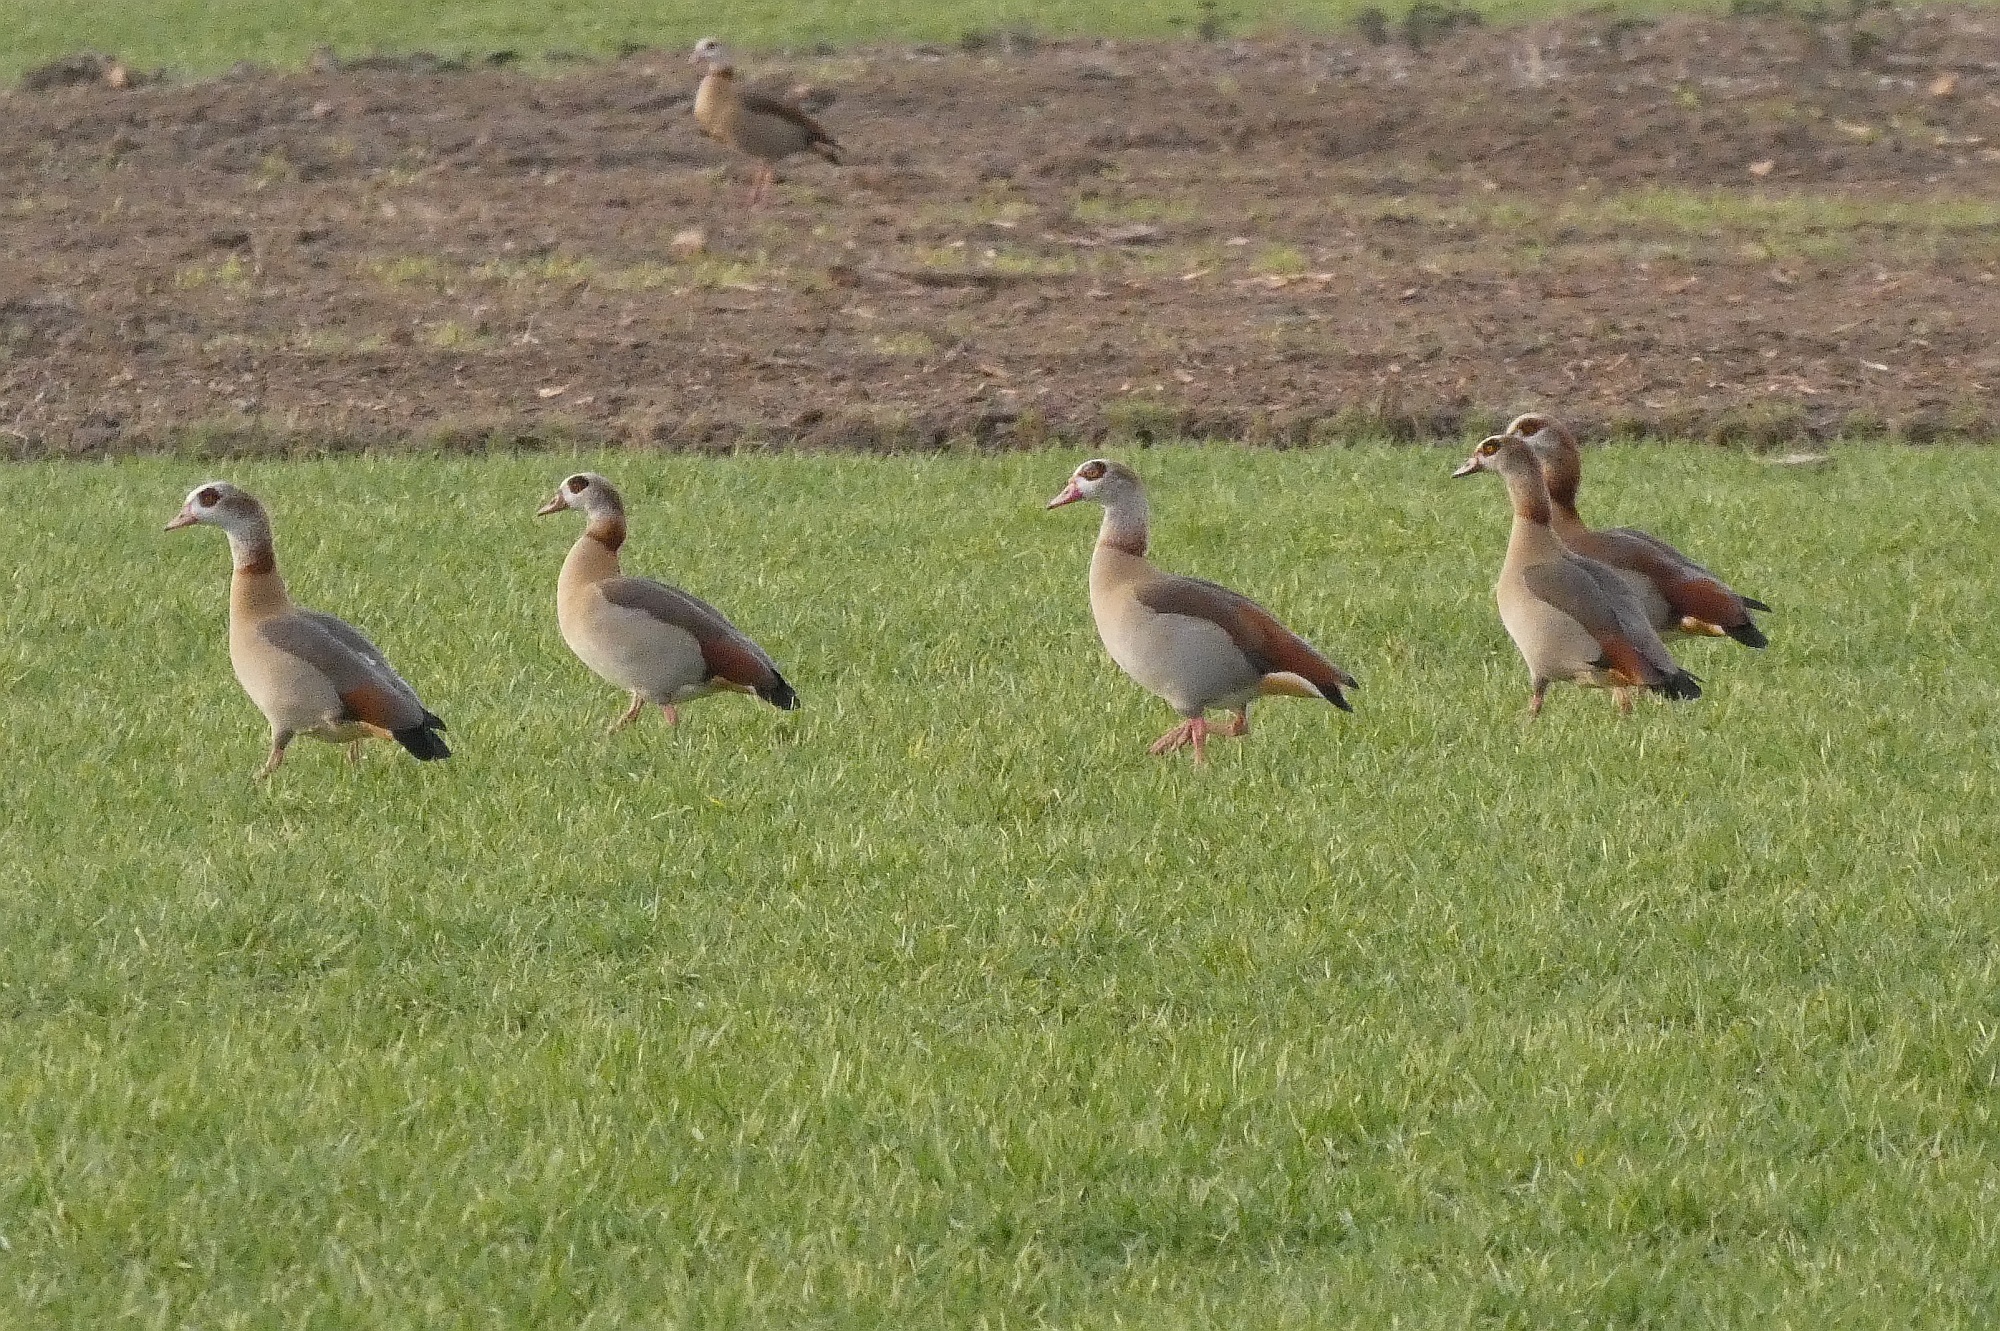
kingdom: Animalia
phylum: Chordata
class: Aves
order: Anseriformes
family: Anatidae
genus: Alopochen
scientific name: Alopochen aegyptiaca
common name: Egyptian goose
